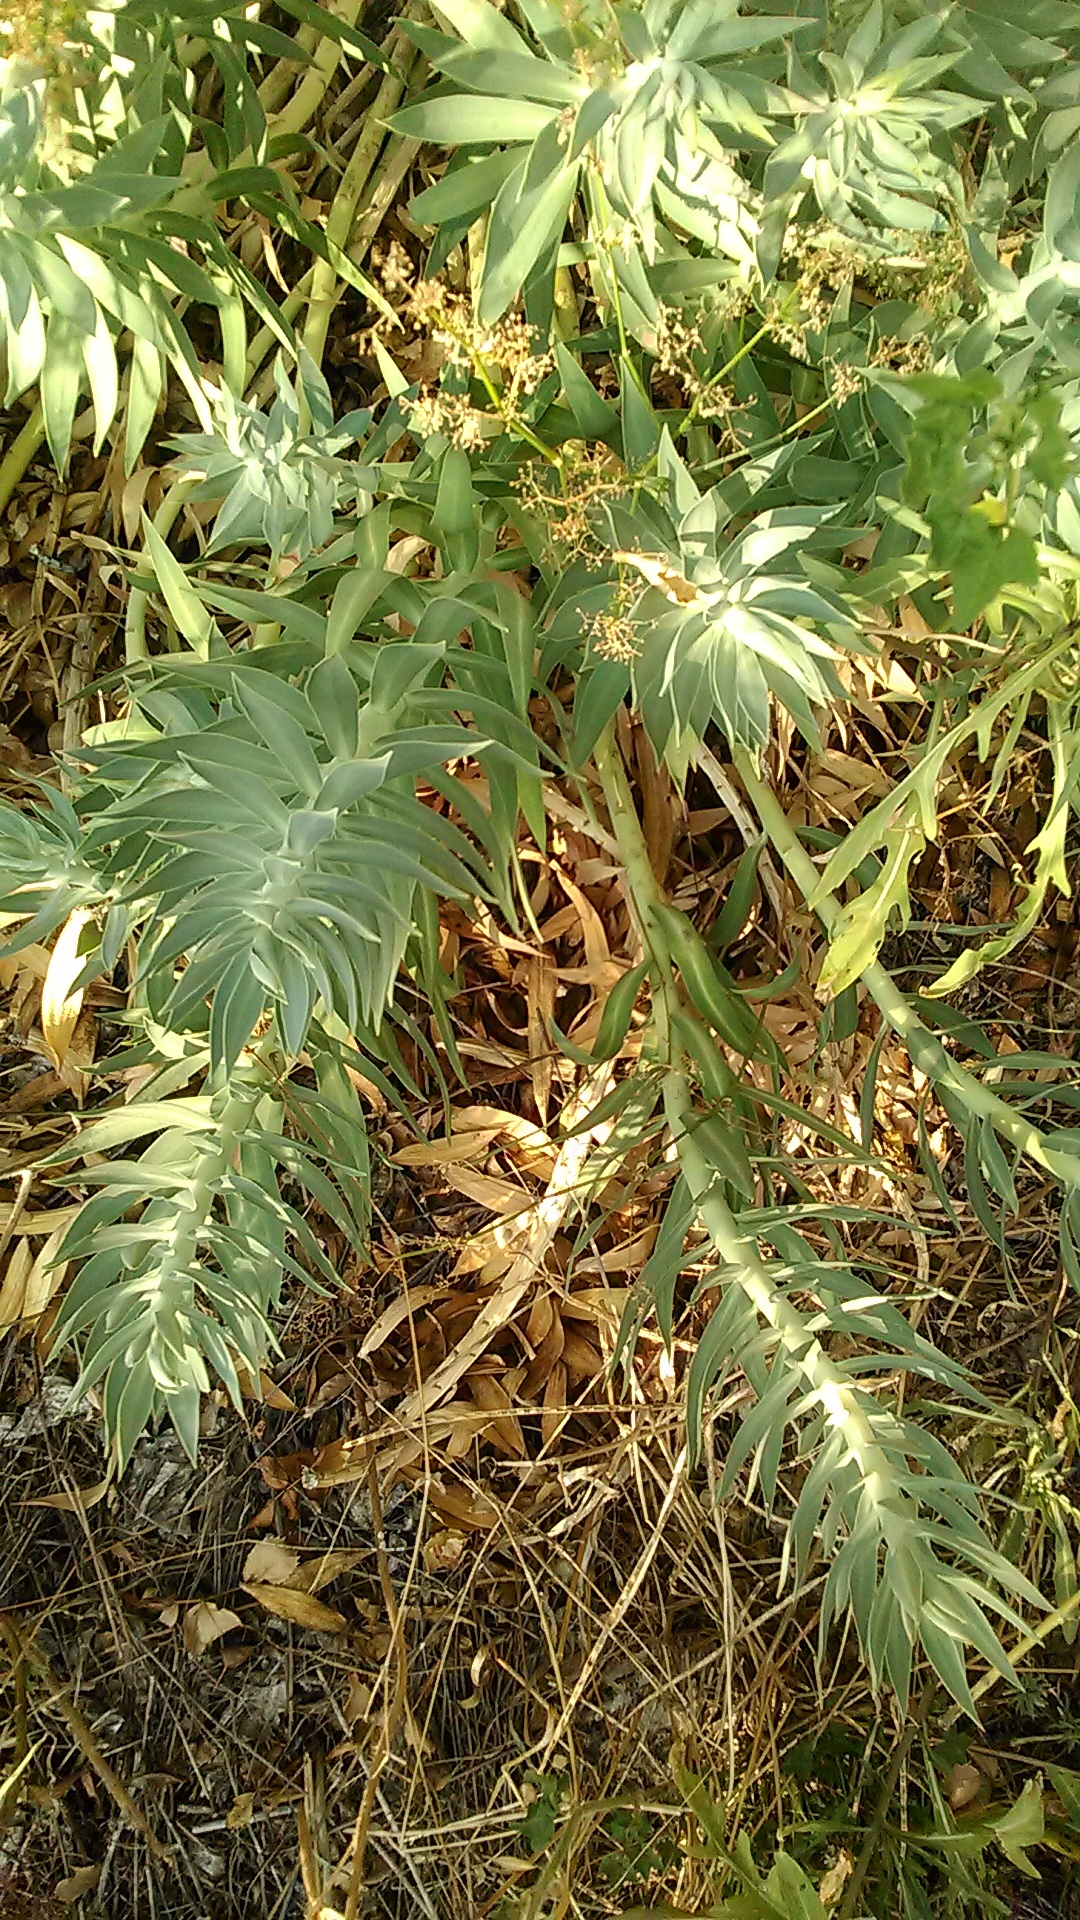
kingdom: Plantae
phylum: Tracheophyta
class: Magnoliopsida
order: Malpighiales
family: Euphorbiaceae
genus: Euphorbia
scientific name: Euphorbia rigida
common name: Upright myrtle spurge
